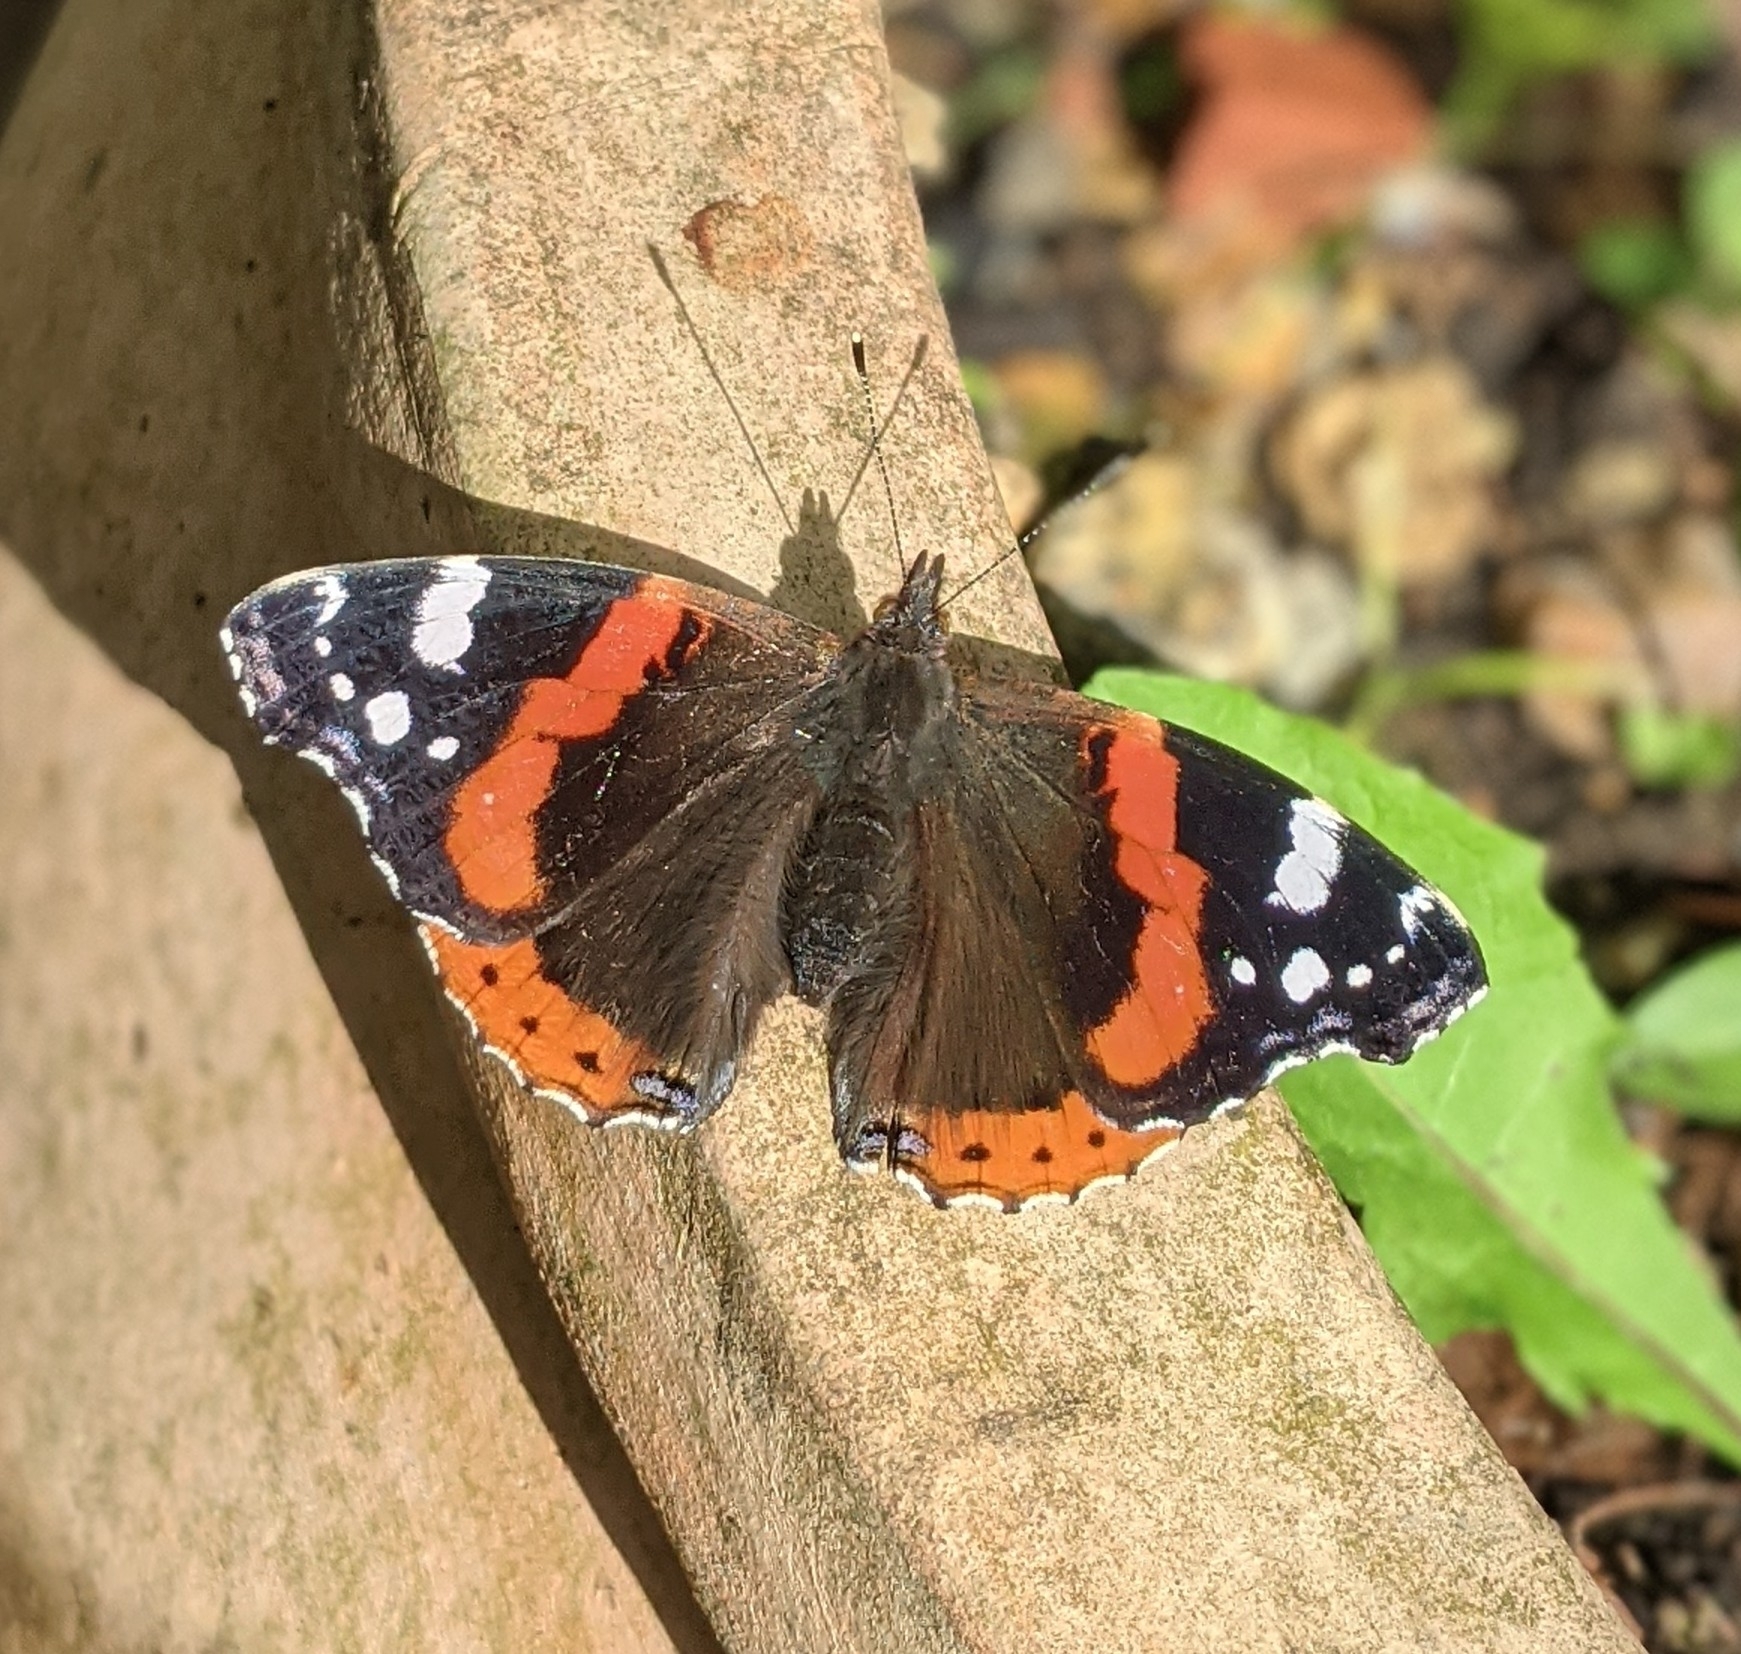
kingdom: Animalia
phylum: Arthropoda
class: Insecta
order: Lepidoptera
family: Nymphalidae
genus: Vanessa
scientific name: Vanessa atalanta
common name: Red admiral
